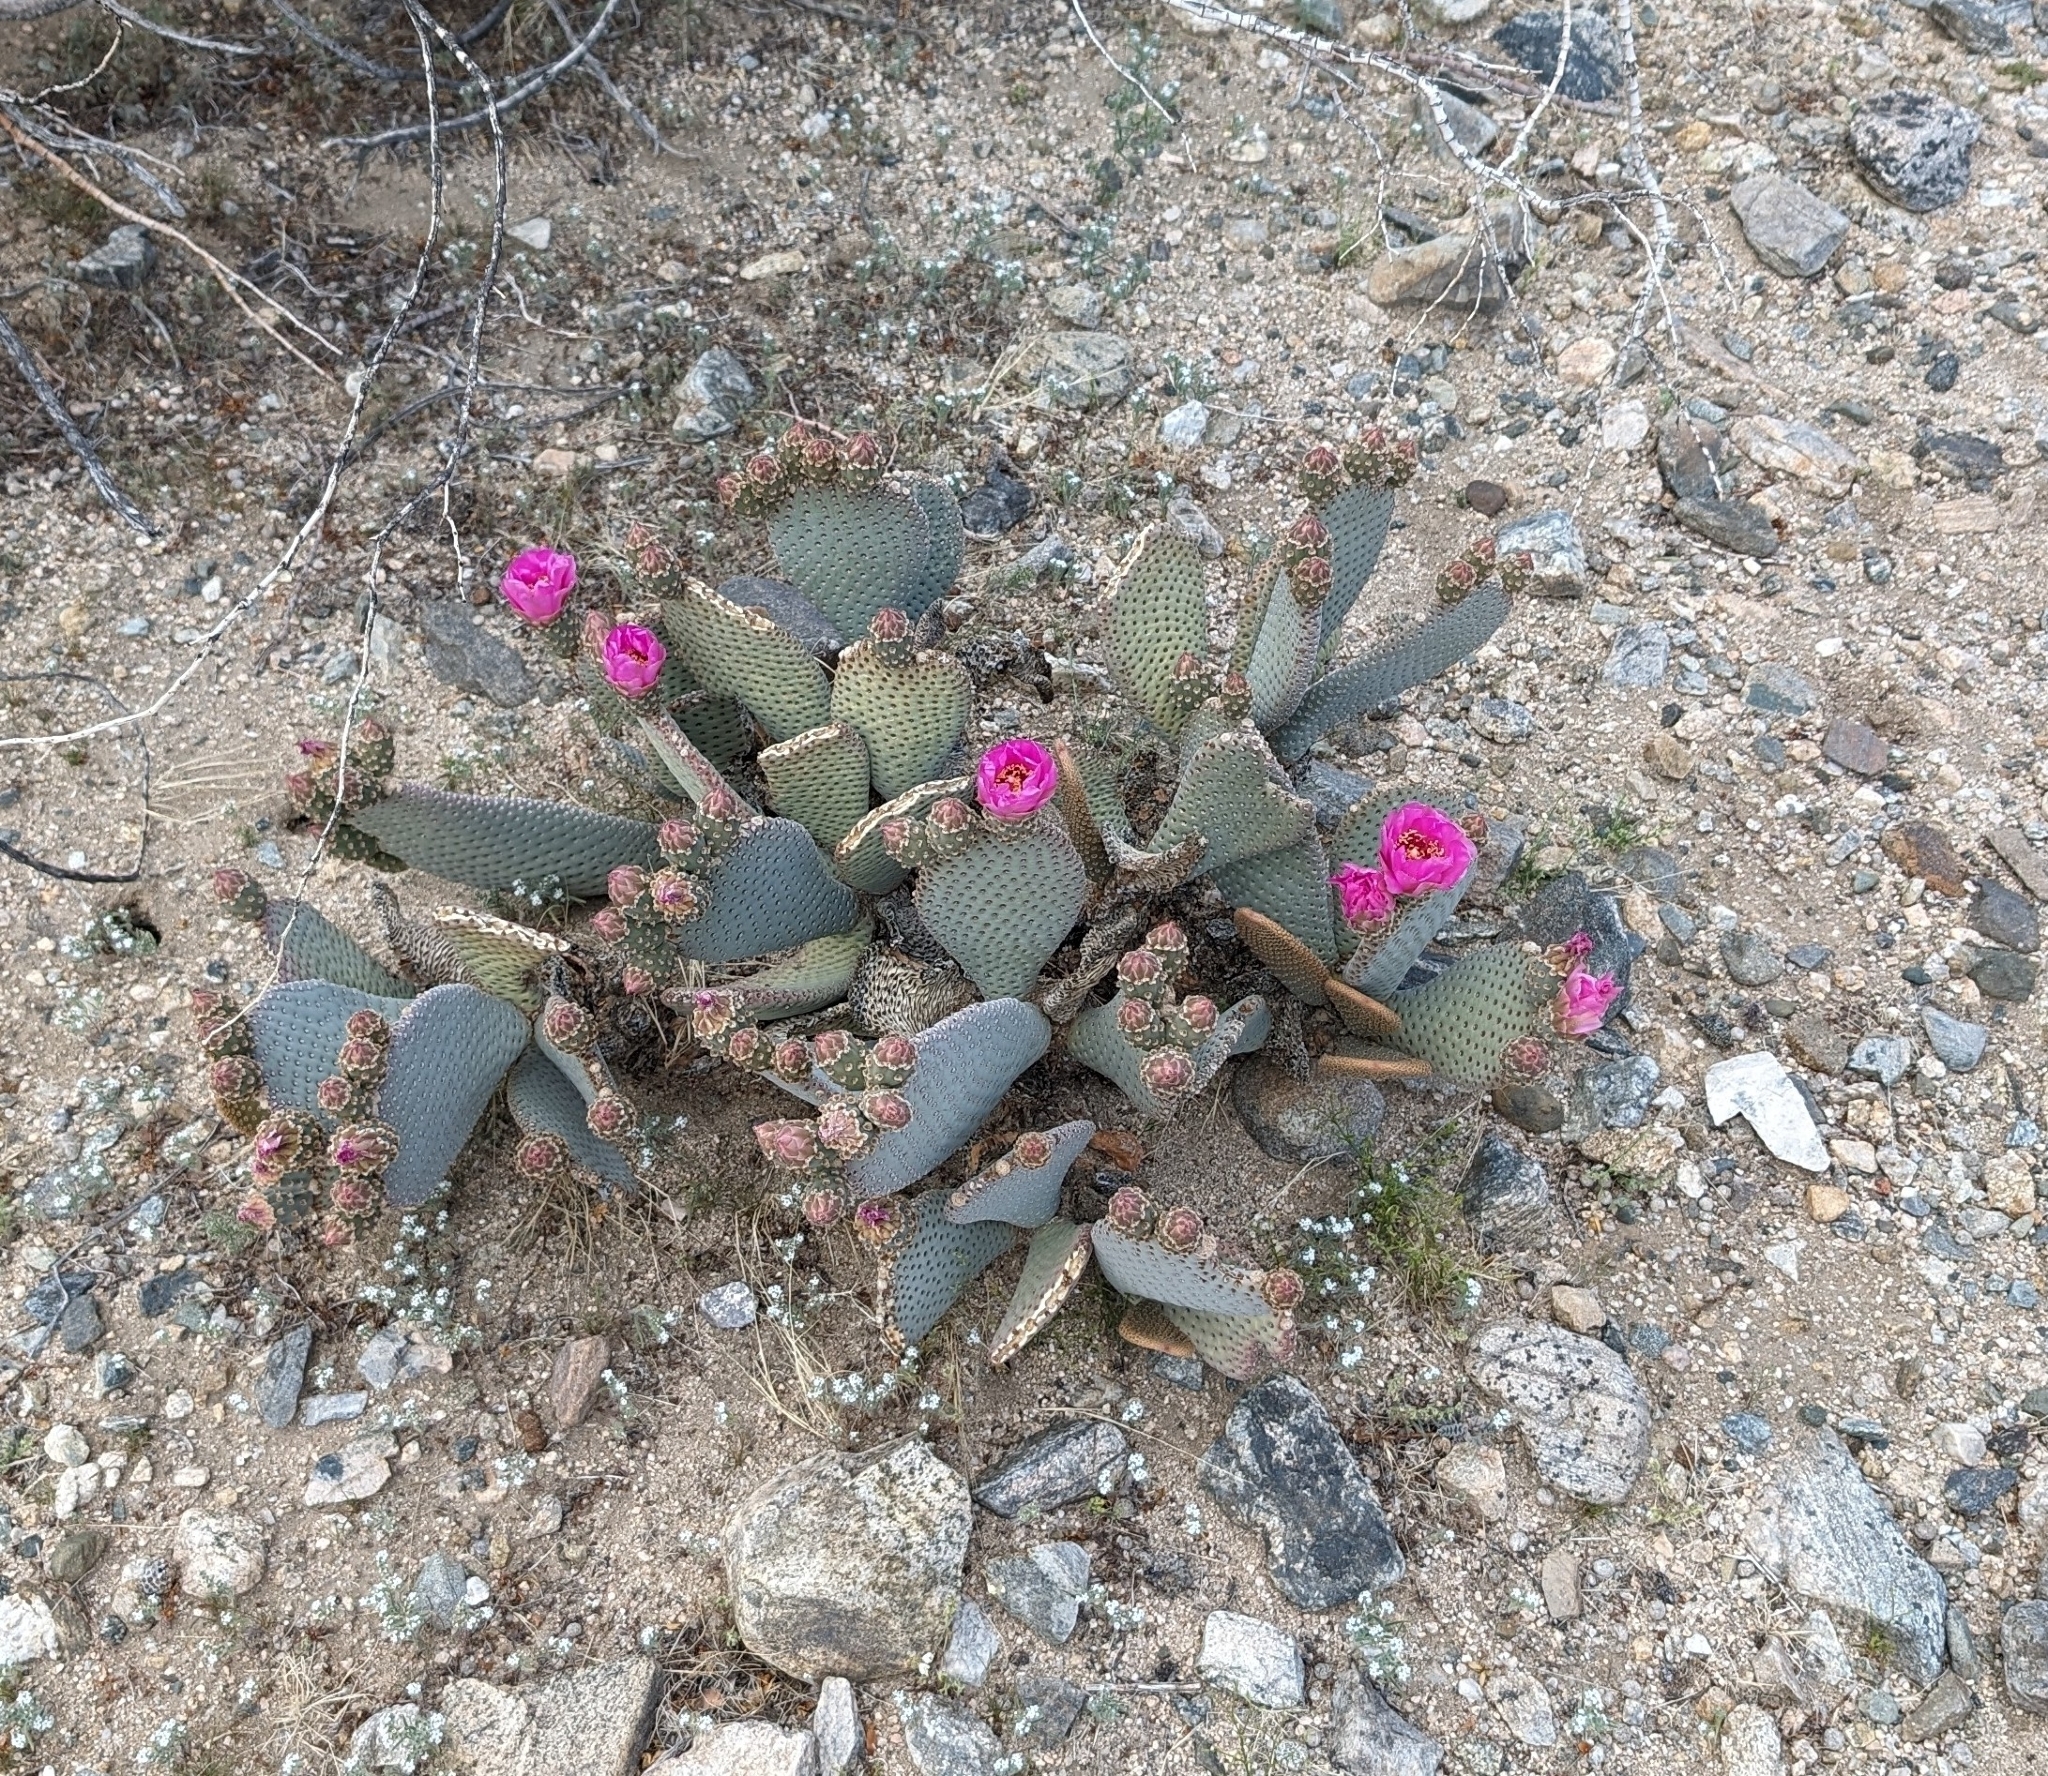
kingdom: Plantae
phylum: Tracheophyta
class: Magnoliopsida
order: Caryophyllales
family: Cactaceae
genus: Opuntia
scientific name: Opuntia basilaris
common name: Beavertail prickly-pear
